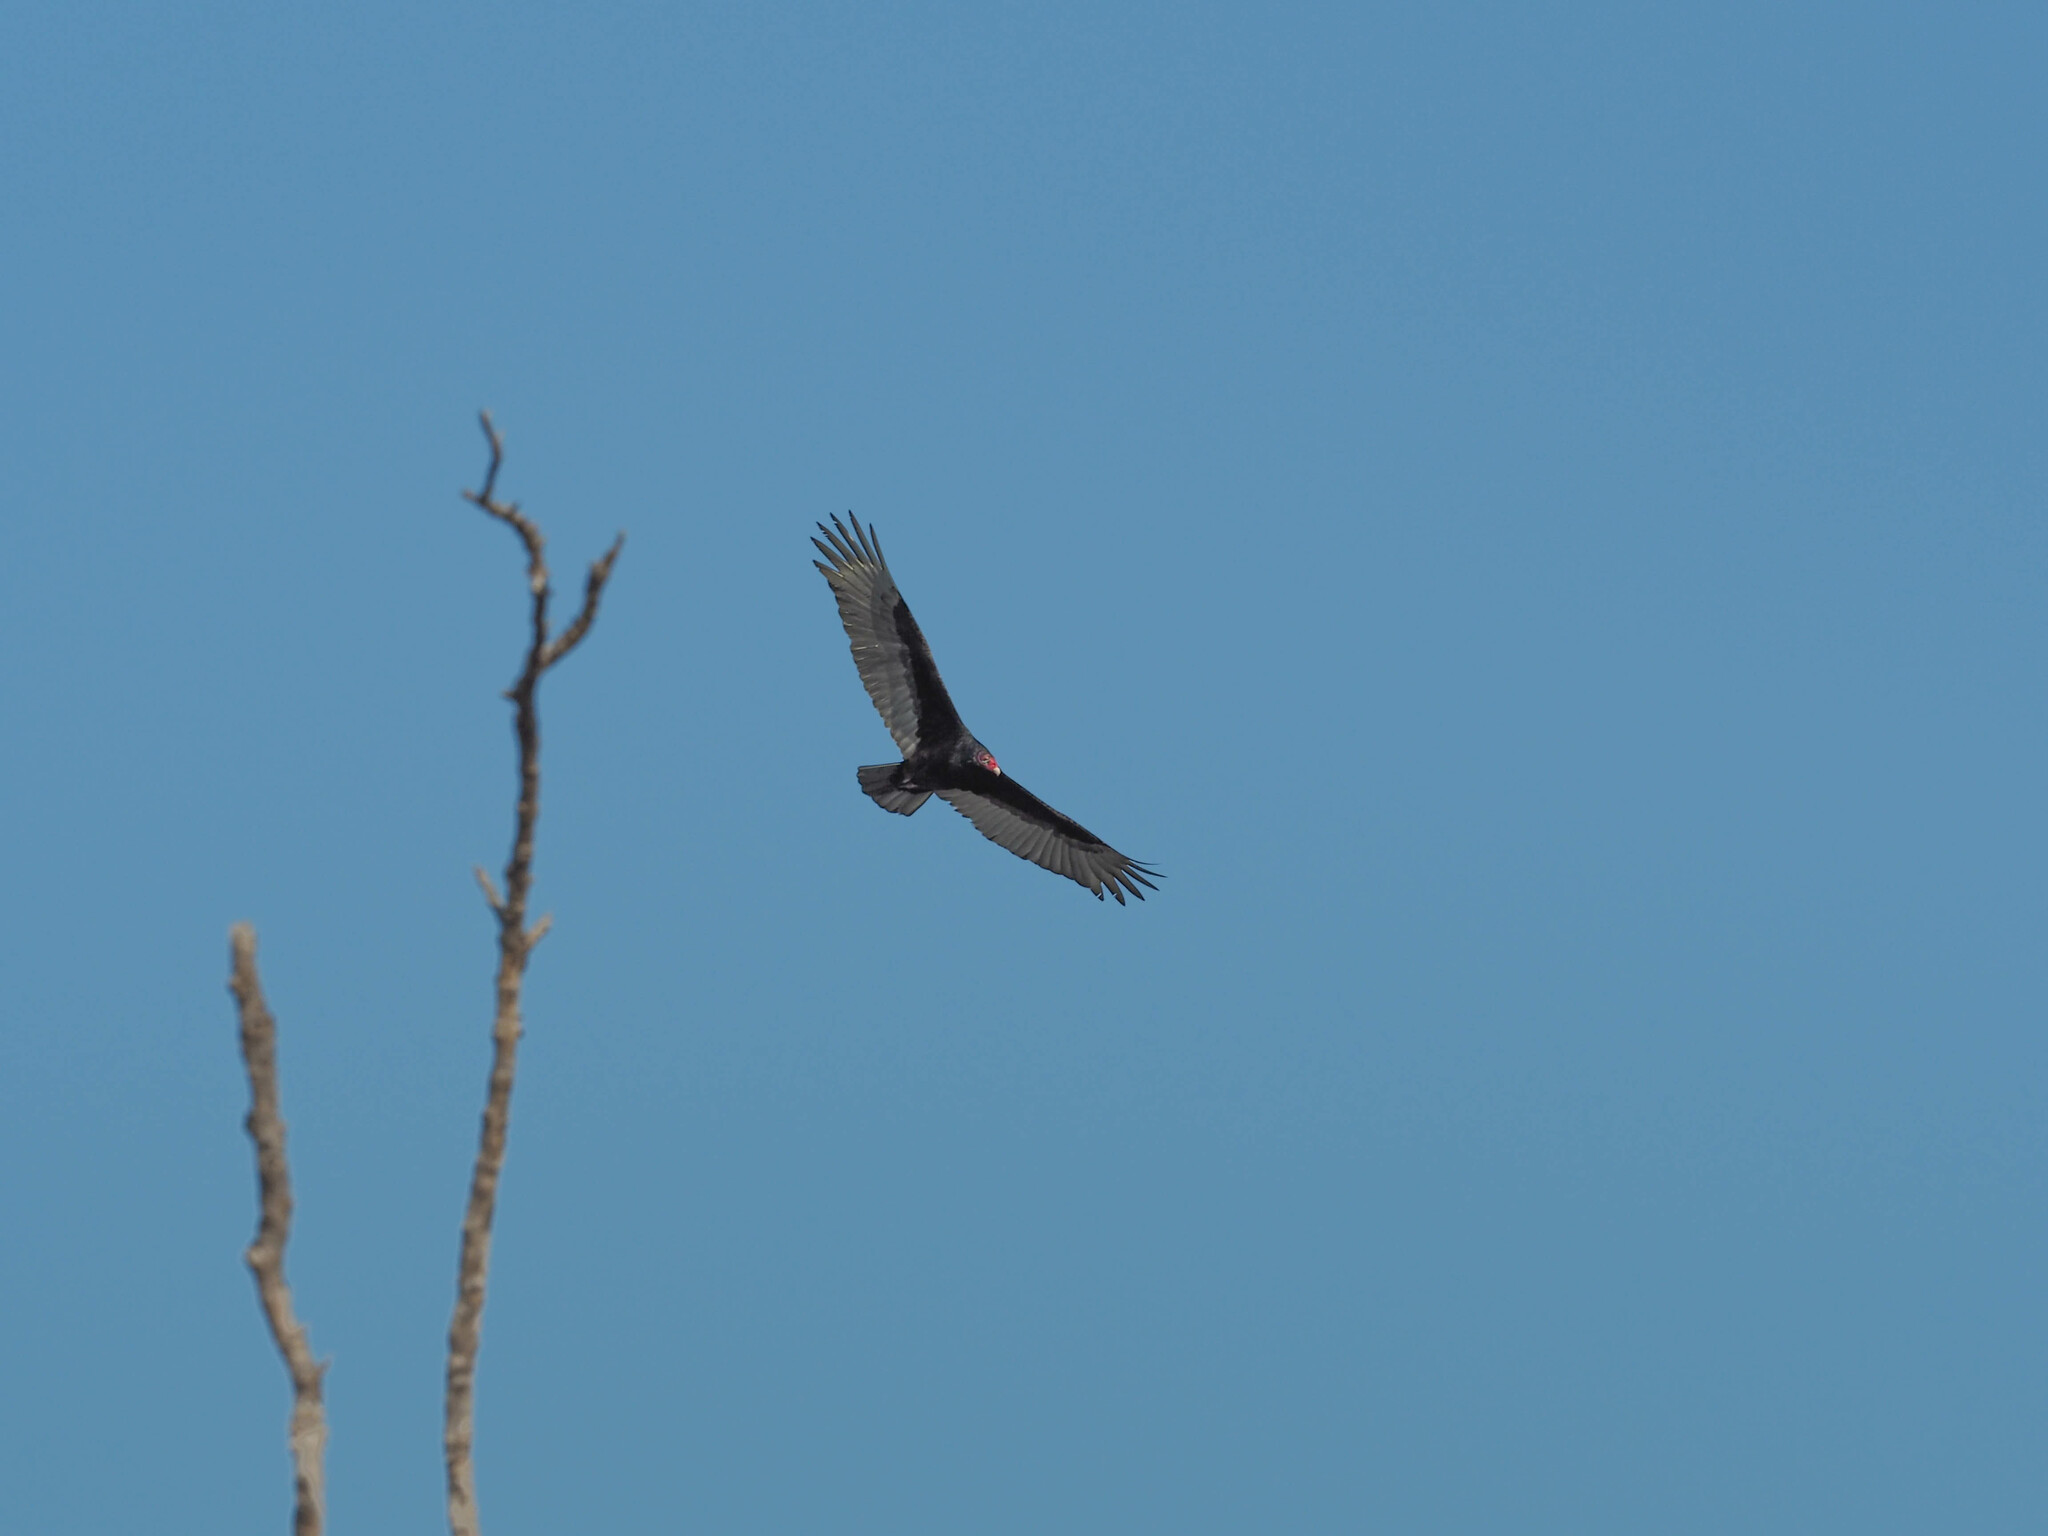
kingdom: Animalia
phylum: Chordata
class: Aves
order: Accipitriformes
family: Cathartidae
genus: Cathartes
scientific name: Cathartes aura
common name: Turkey vulture
